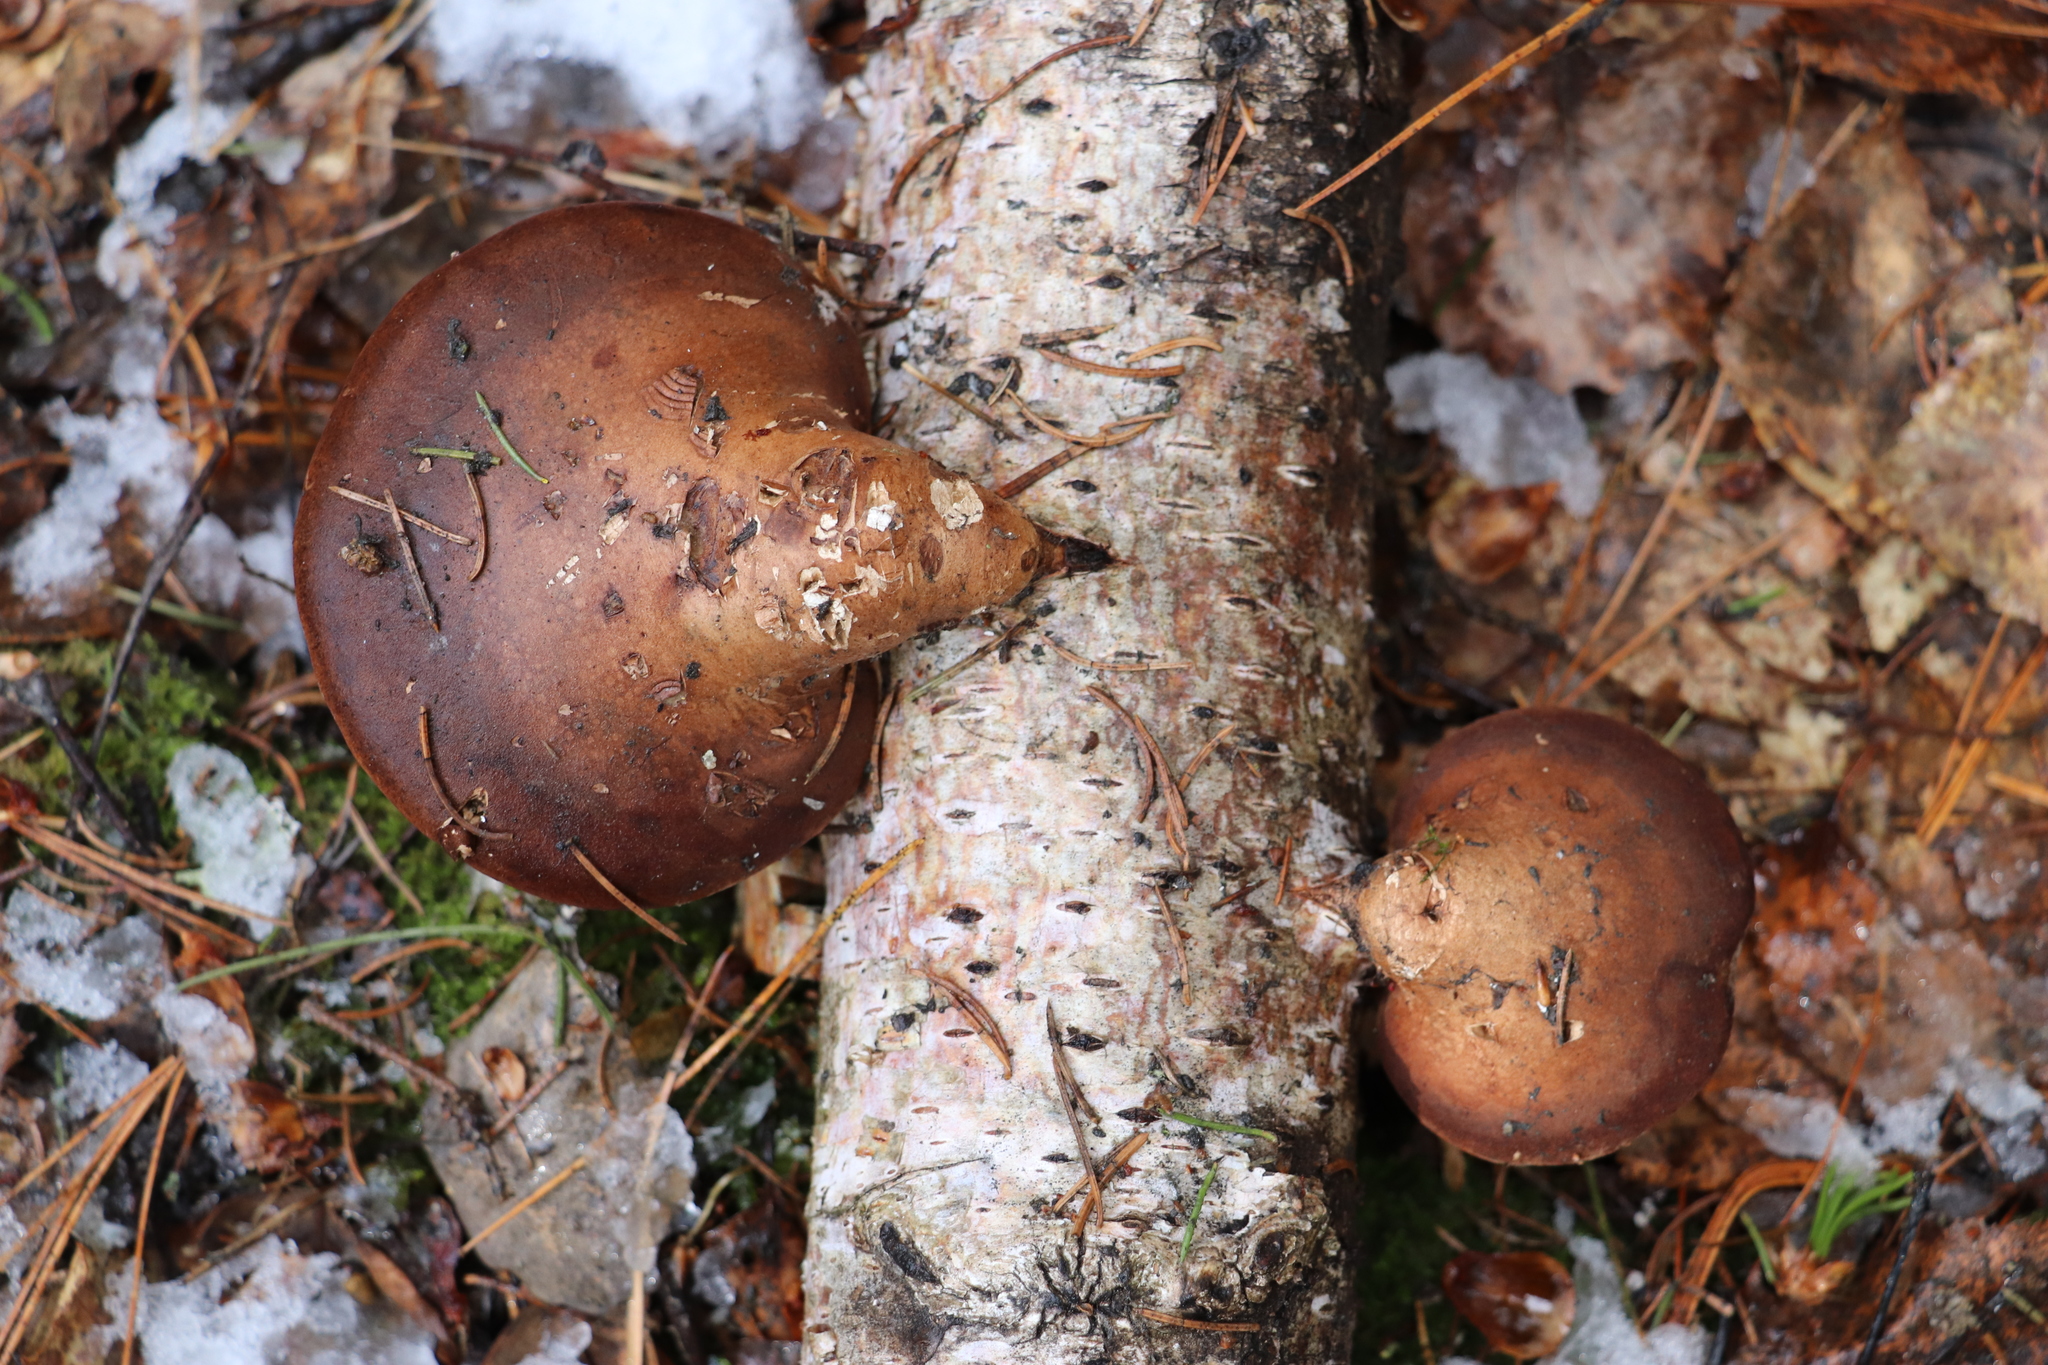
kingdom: Fungi
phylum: Basidiomycota
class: Agaricomycetes
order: Polyporales
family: Fomitopsidaceae
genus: Fomitopsis
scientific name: Fomitopsis betulina
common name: Birch polypore
